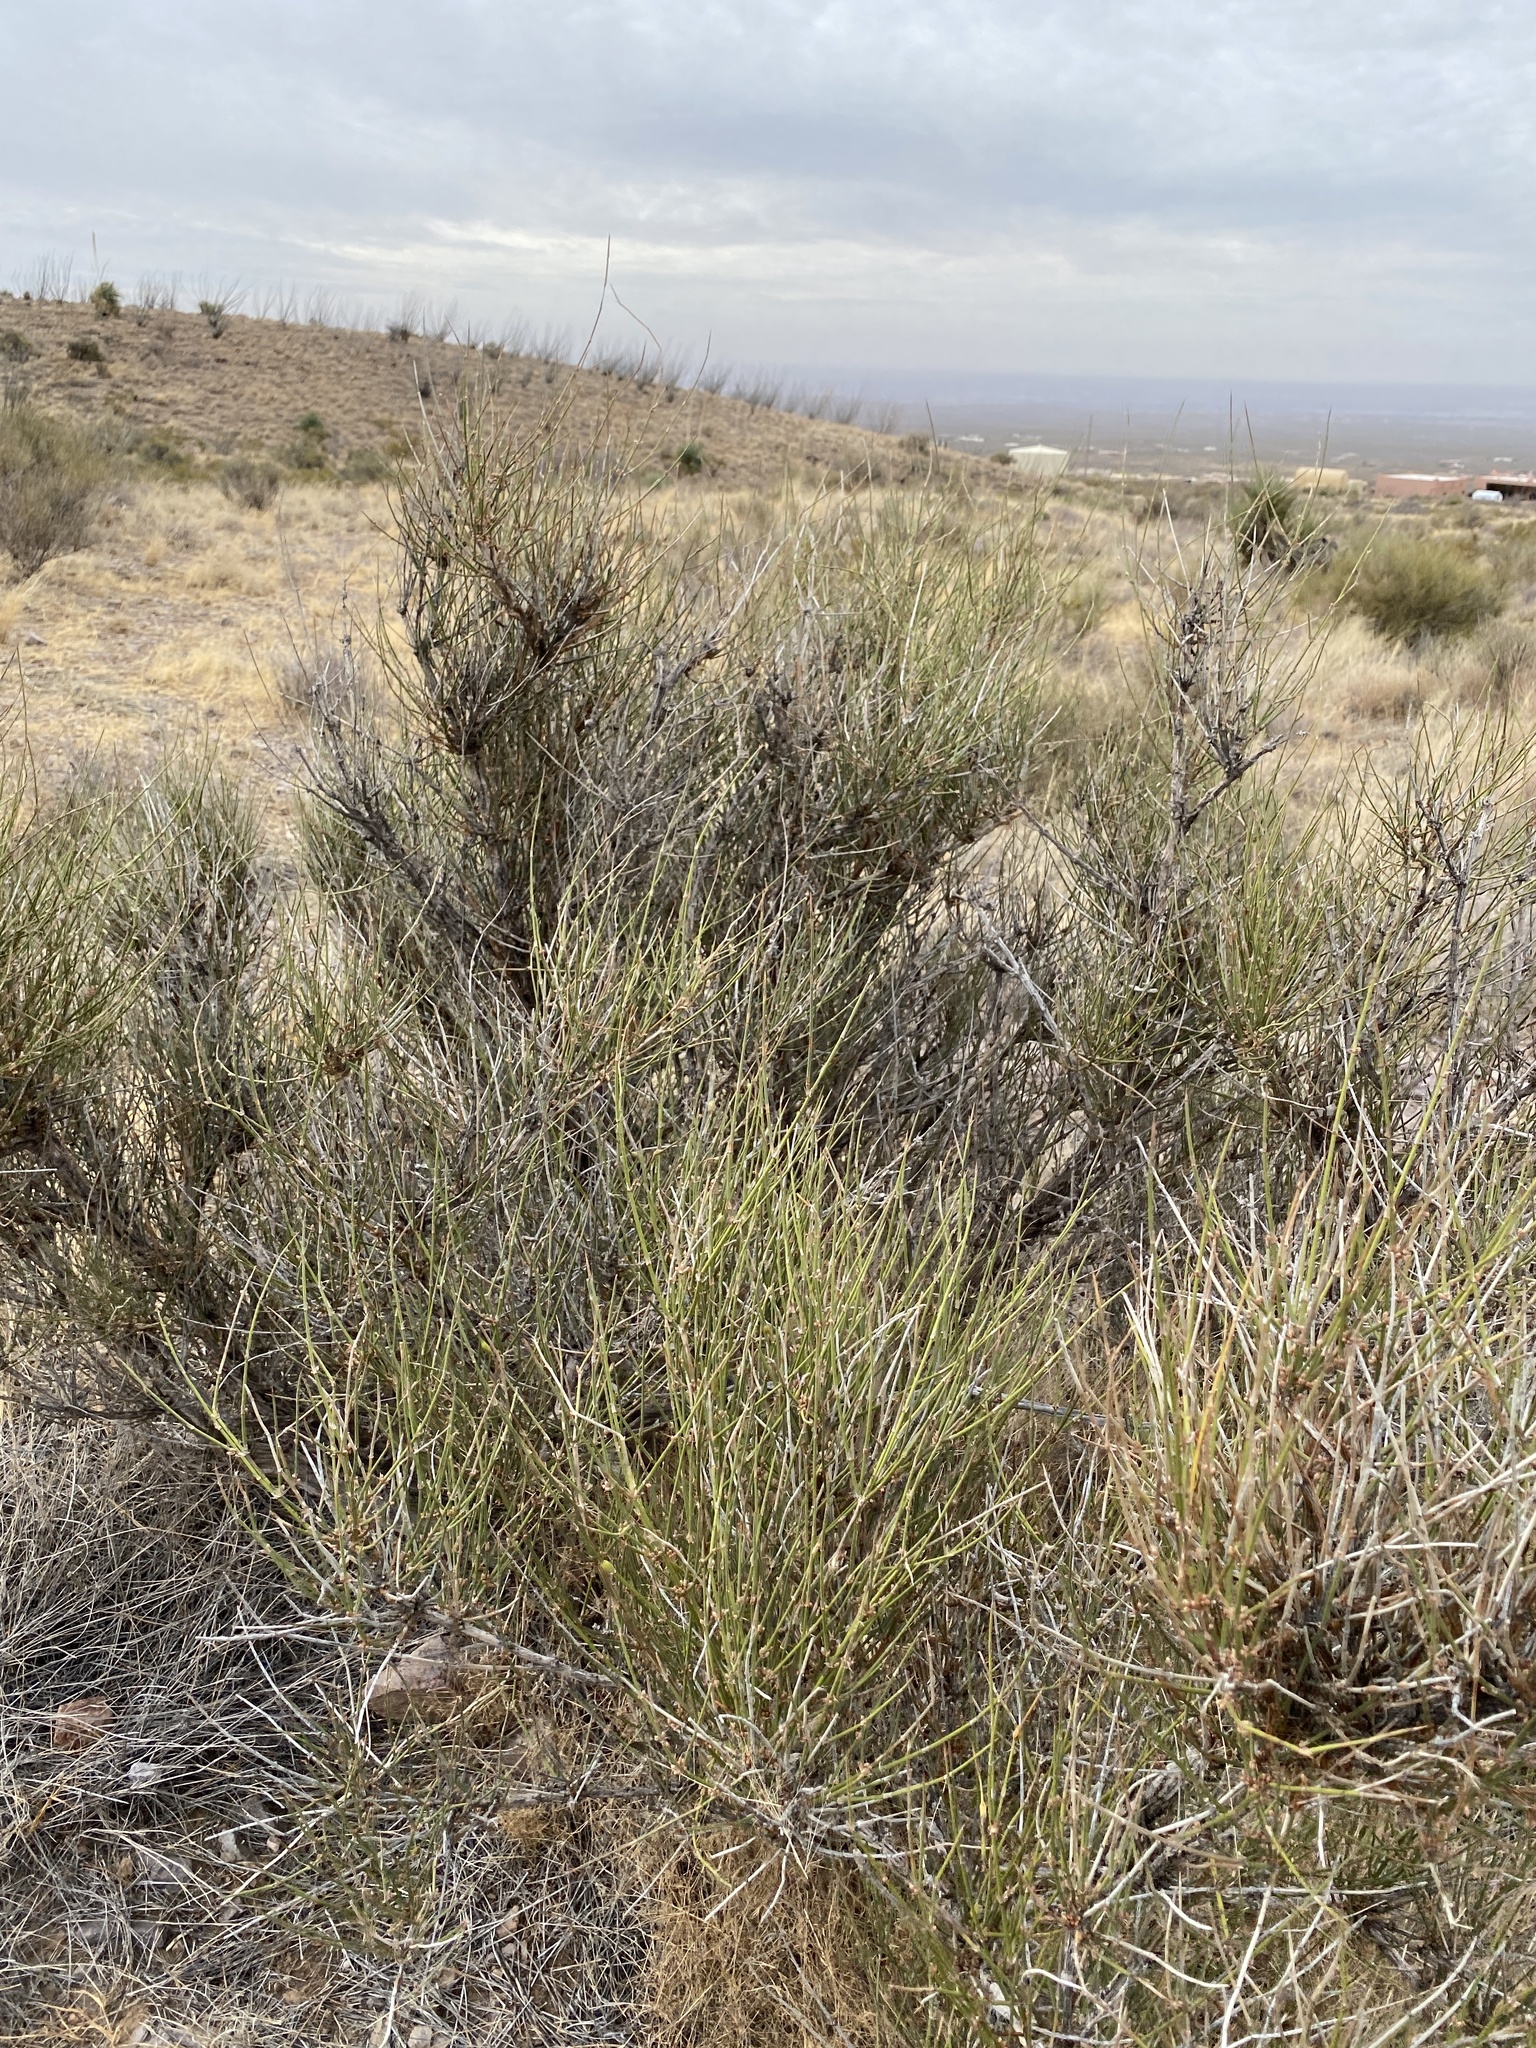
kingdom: Plantae
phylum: Tracheophyta
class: Gnetopsida
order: Ephedrales
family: Ephedraceae
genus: Ephedra
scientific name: Ephedra trifurca
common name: Mexican-tea
